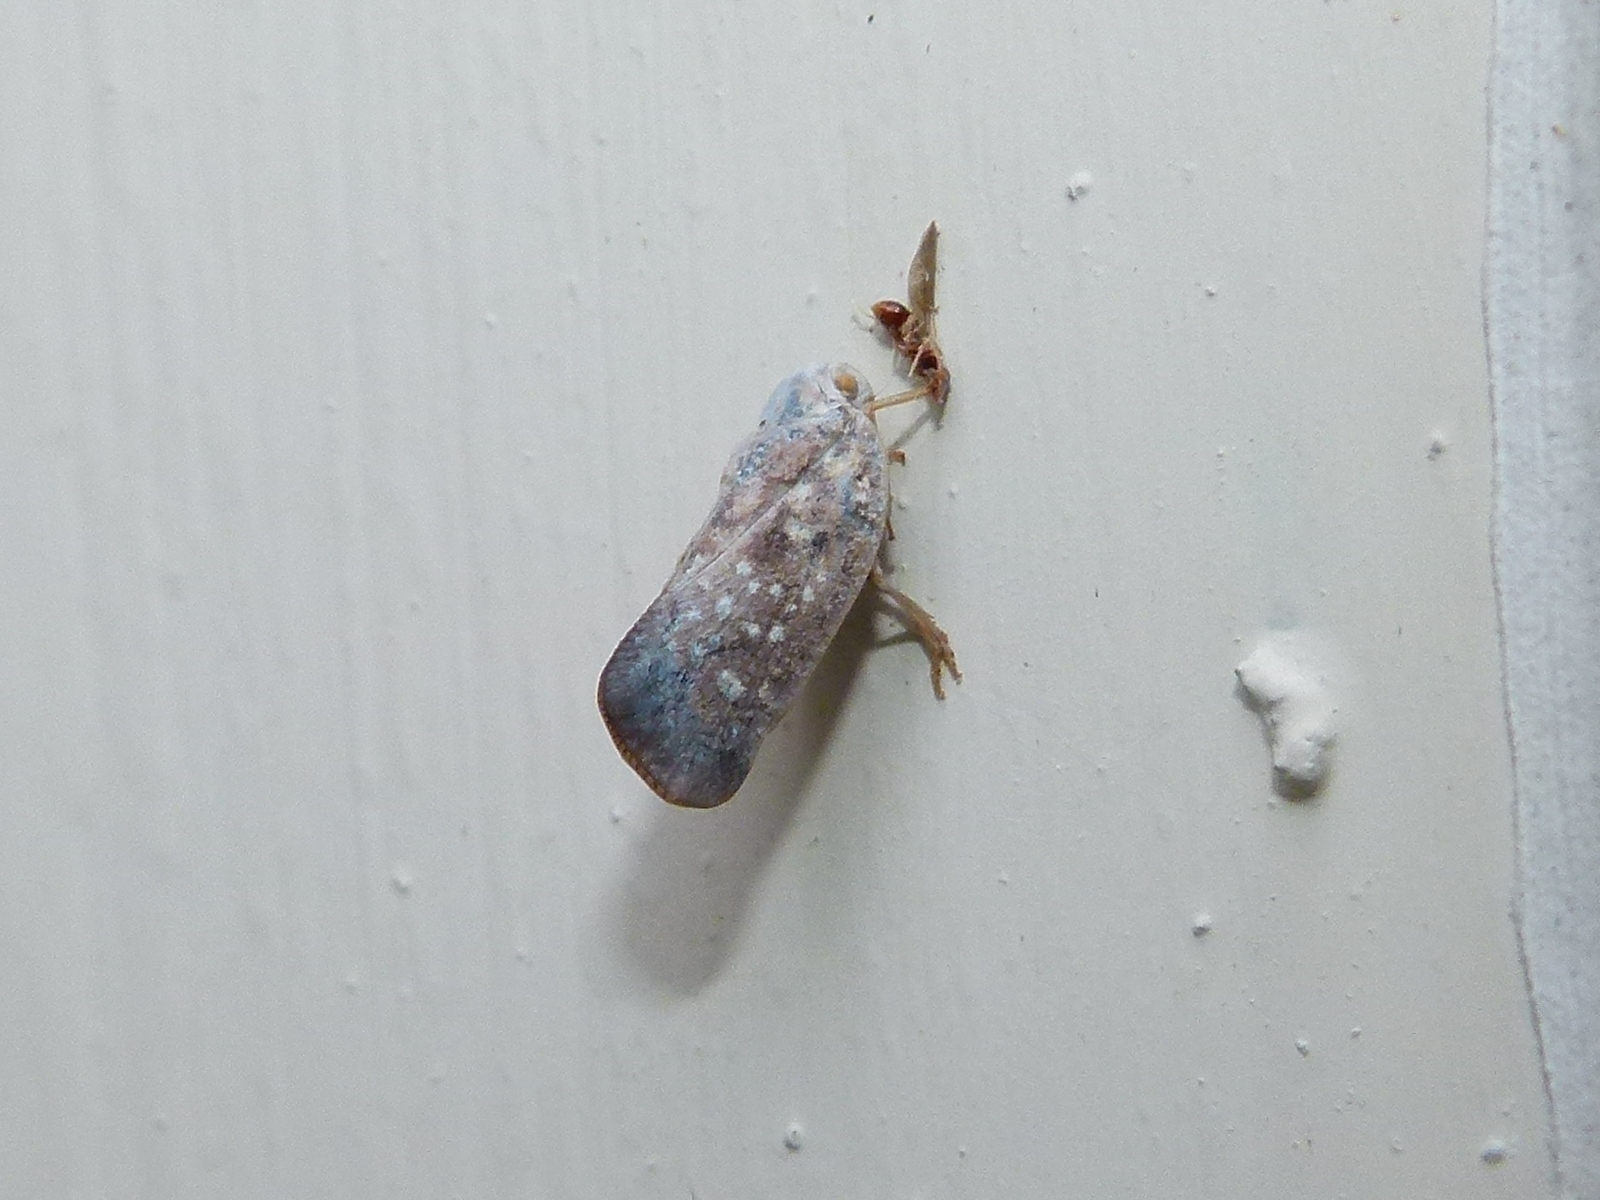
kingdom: Animalia
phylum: Arthropoda
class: Insecta
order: Hemiptera
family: Flatidae
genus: Metcalfa
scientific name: Metcalfa pruinosa
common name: Citrus flatid planthopper
